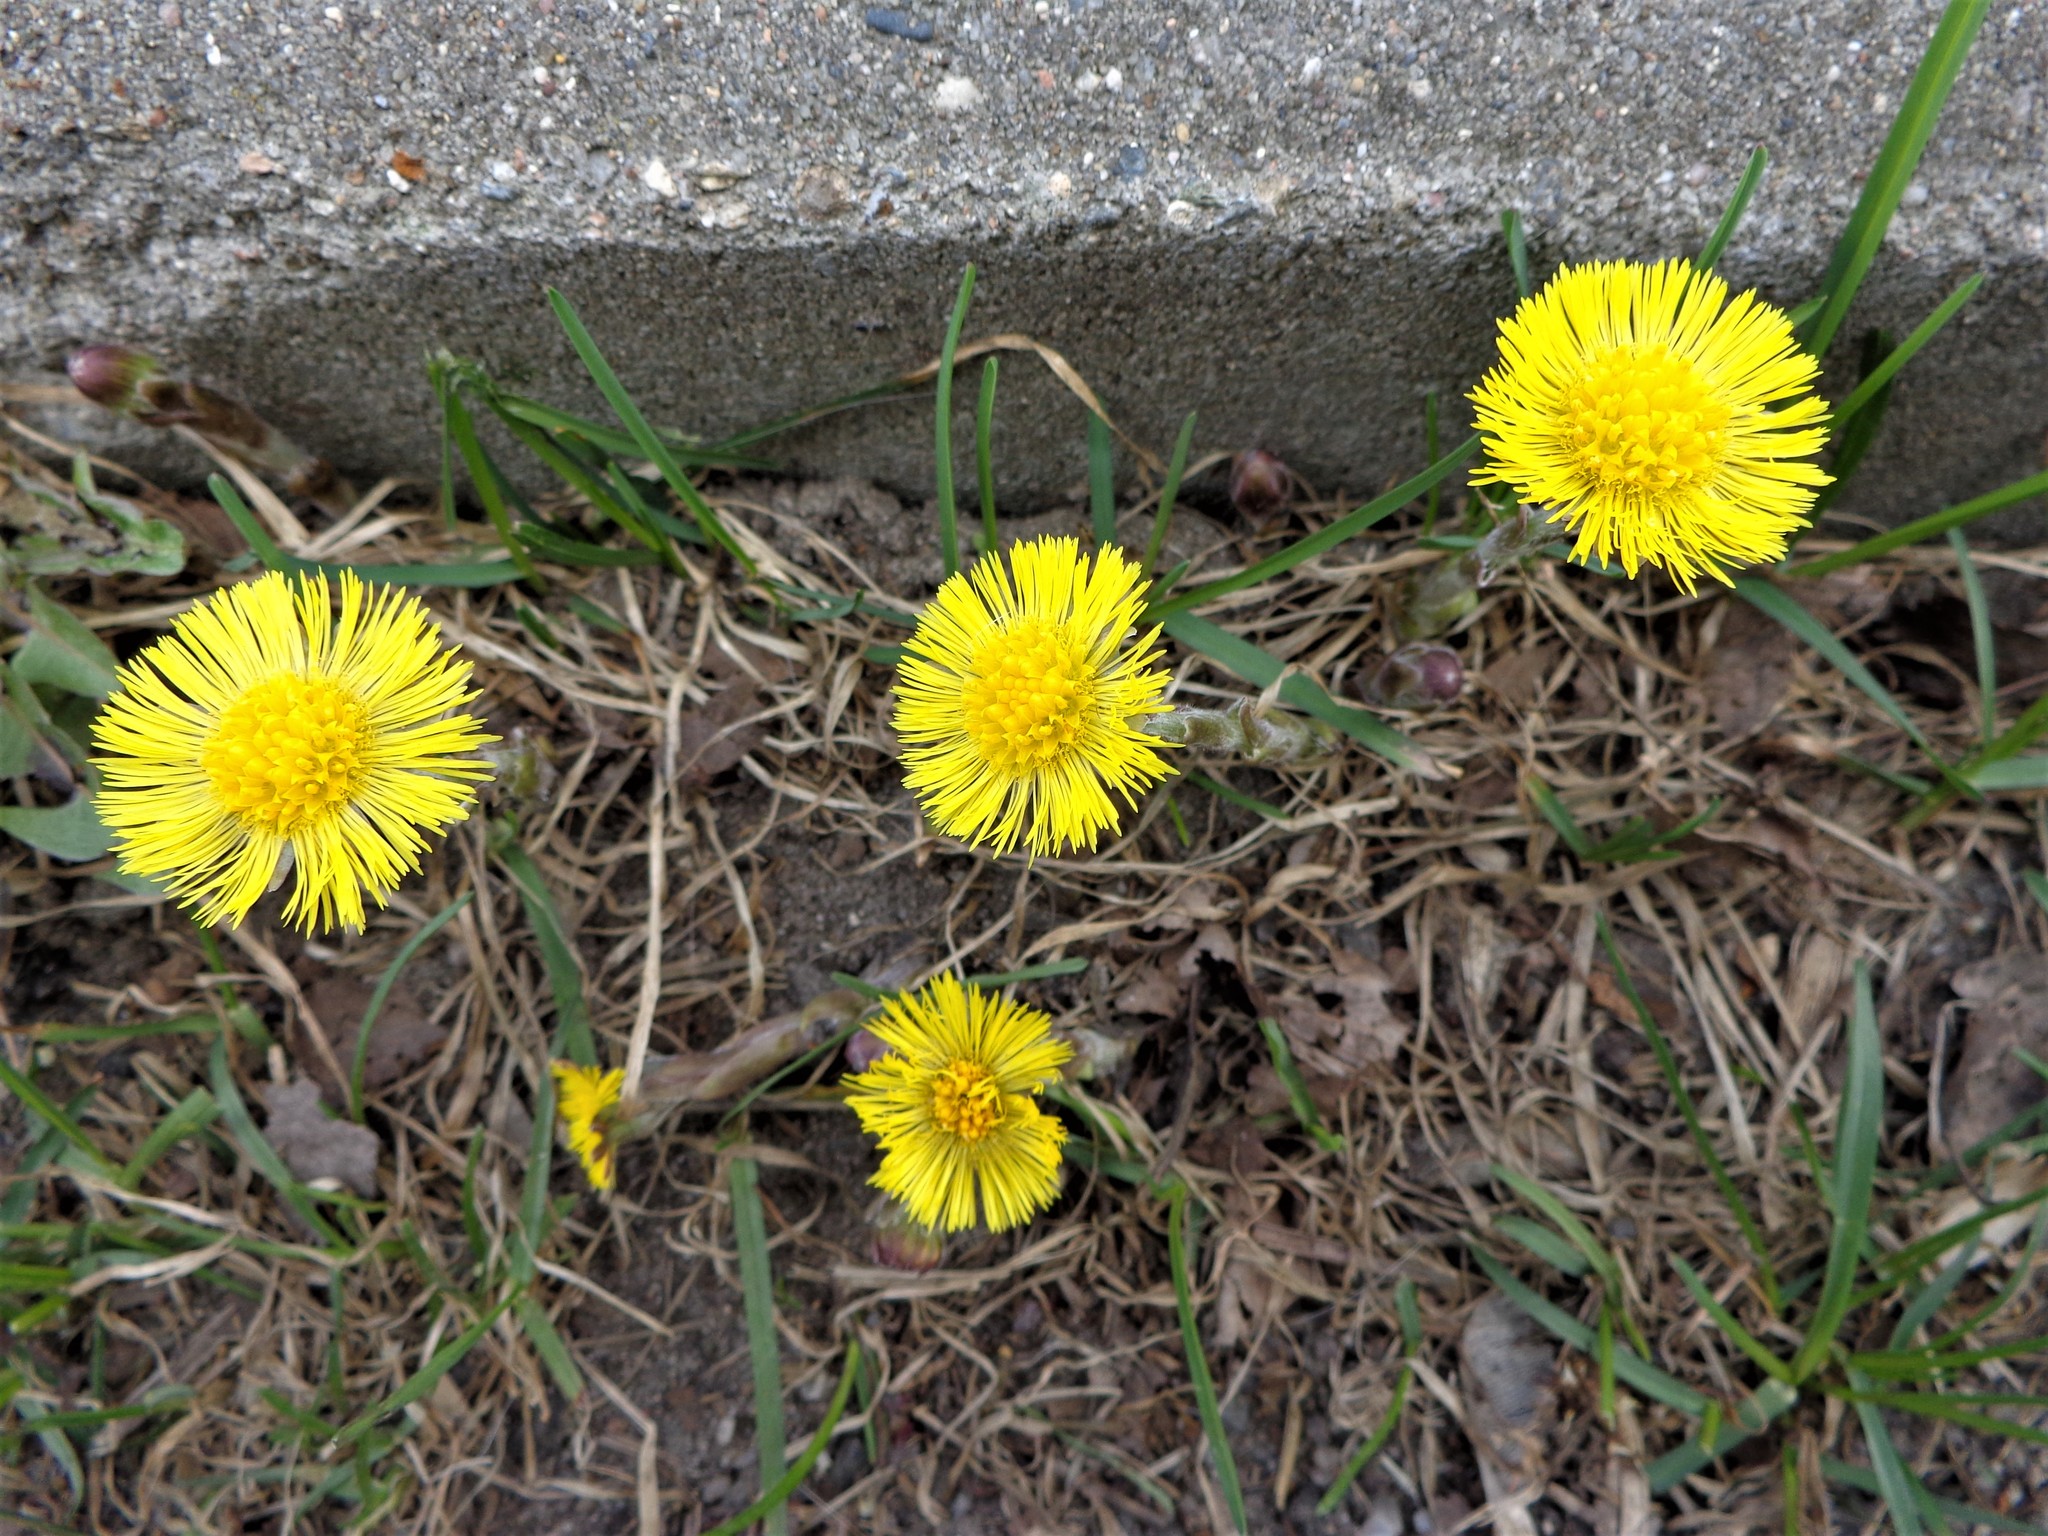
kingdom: Plantae
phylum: Tracheophyta
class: Magnoliopsida
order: Asterales
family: Asteraceae
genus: Tussilago
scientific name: Tussilago farfara
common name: Coltsfoot
